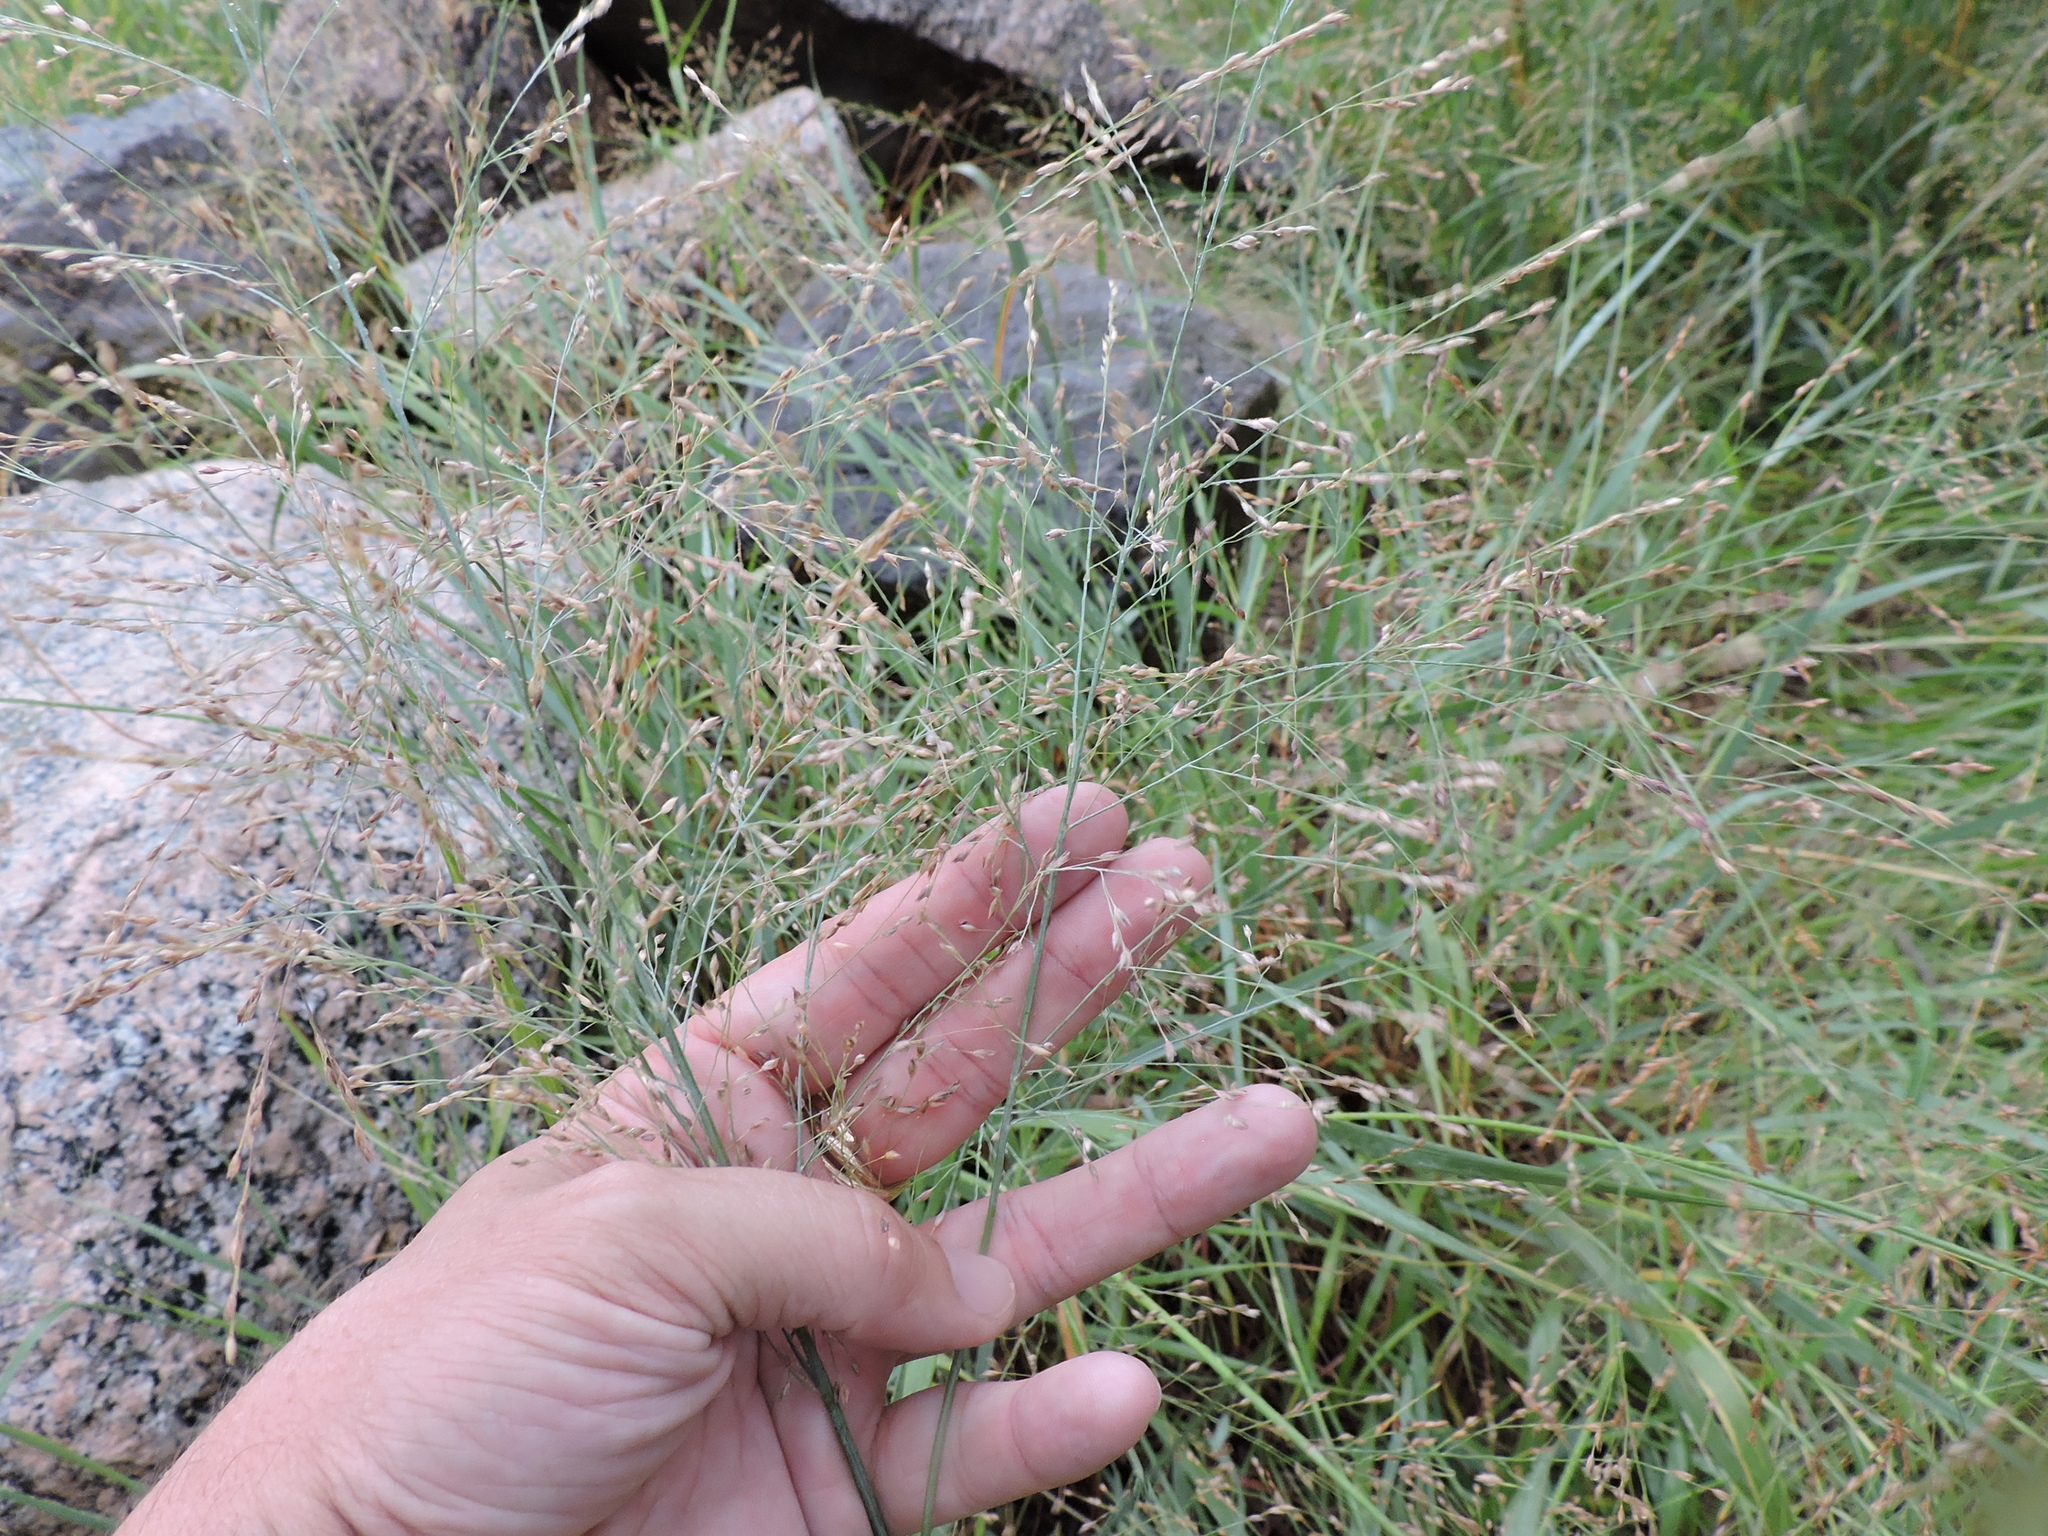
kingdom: Plantae
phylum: Tracheophyta
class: Liliopsida
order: Poales
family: Poaceae
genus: Panicum
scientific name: Panicum virgatum
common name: Switchgrass
